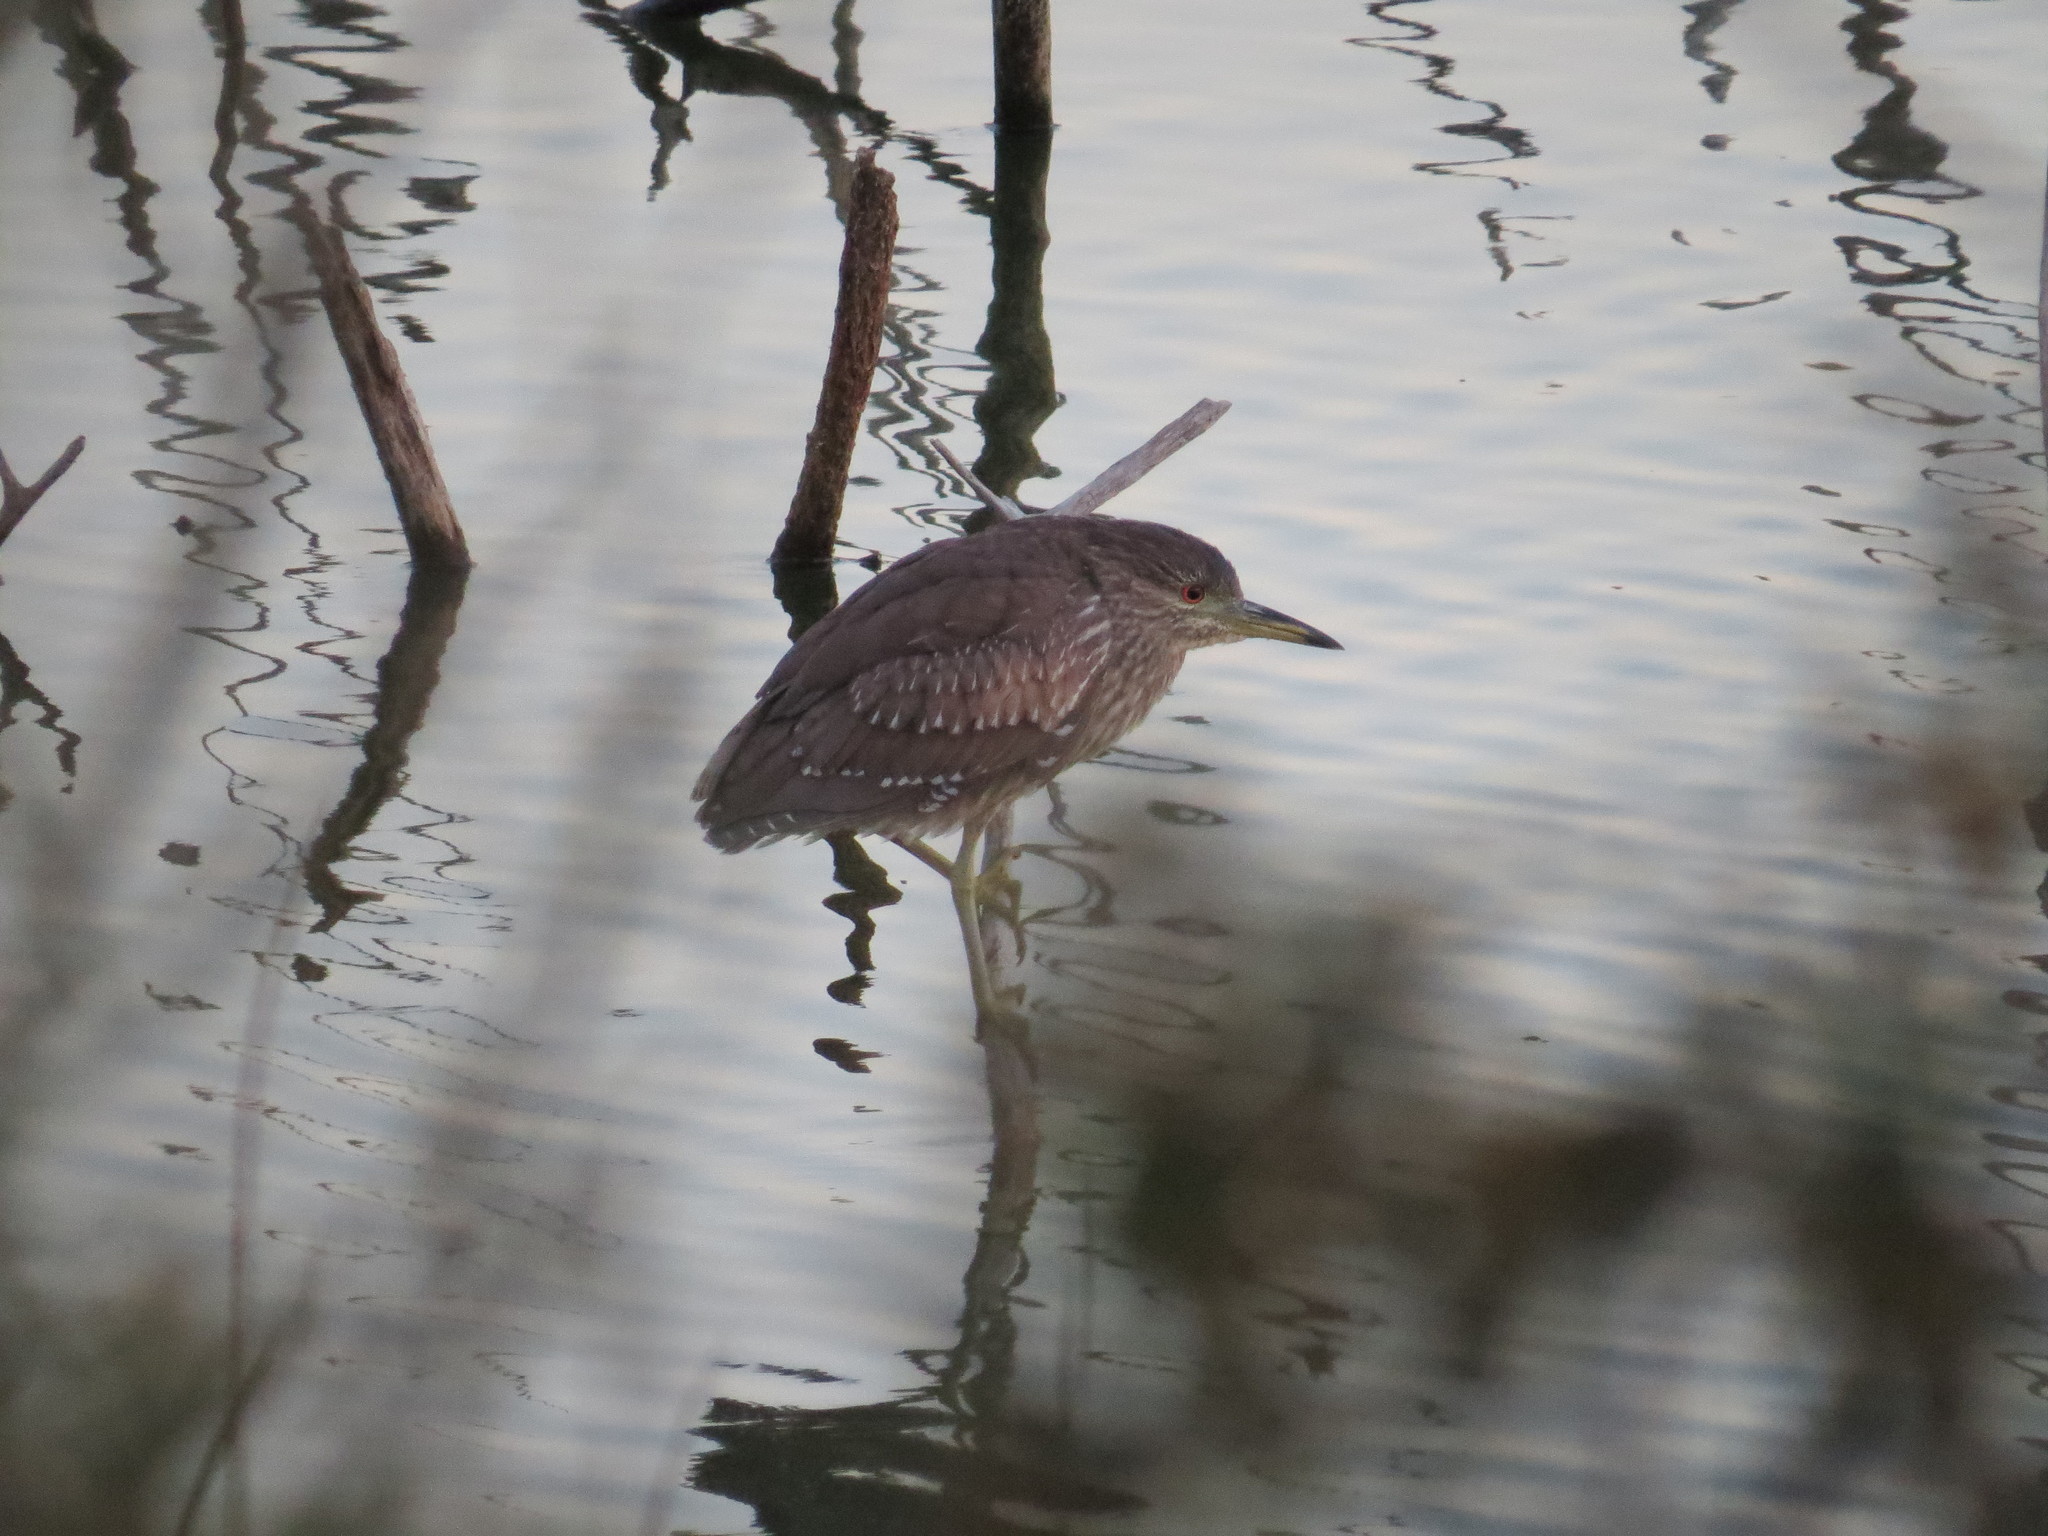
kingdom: Animalia
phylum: Chordata
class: Aves
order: Pelecaniformes
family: Ardeidae
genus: Nycticorax
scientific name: Nycticorax nycticorax
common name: Black-crowned night heron
